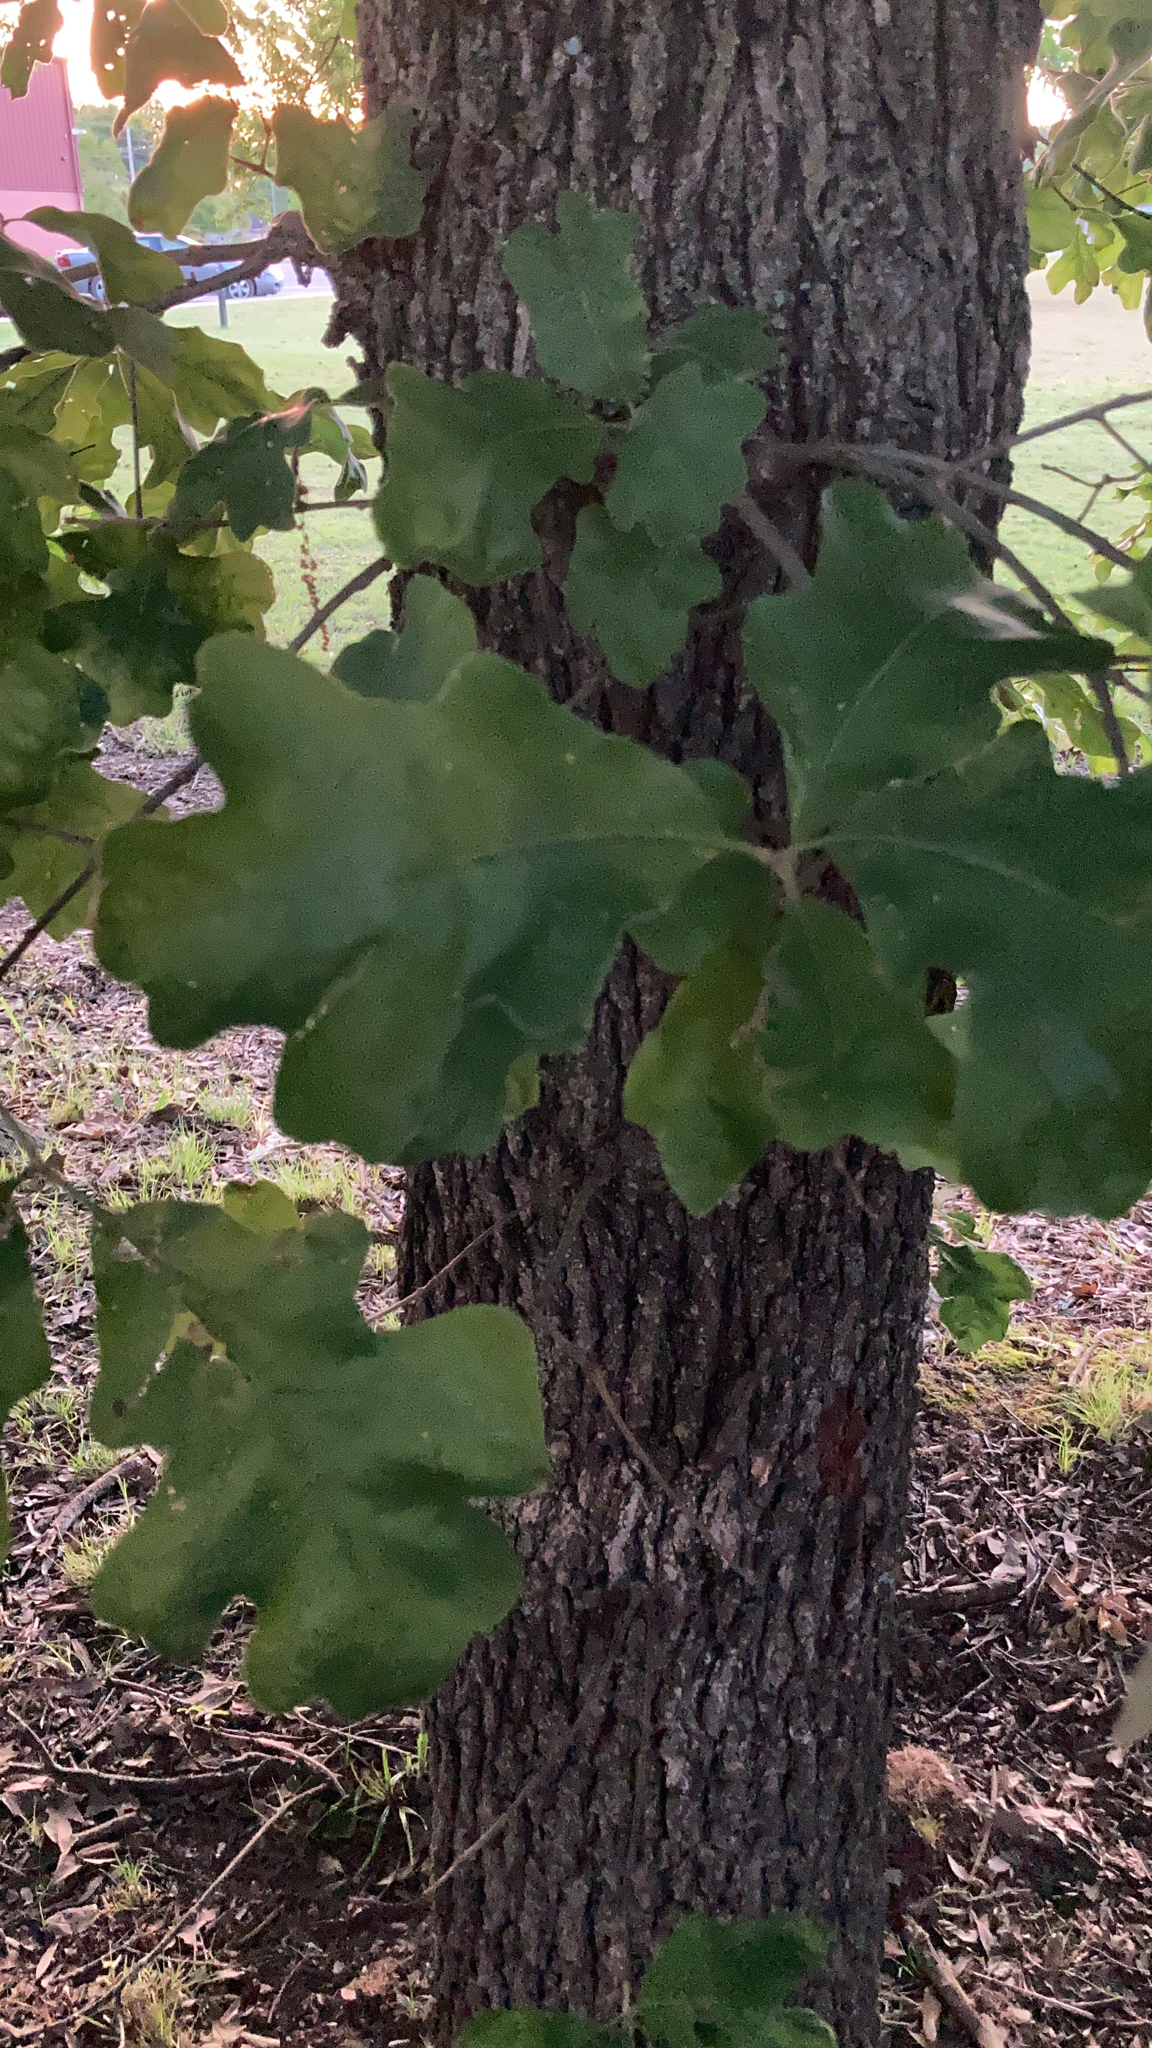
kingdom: Plantae
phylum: Tracheophyta
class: Magnoliopsida
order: Fagales
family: Fagaceae
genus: Quercus
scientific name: Quercus stellata
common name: Post oak
